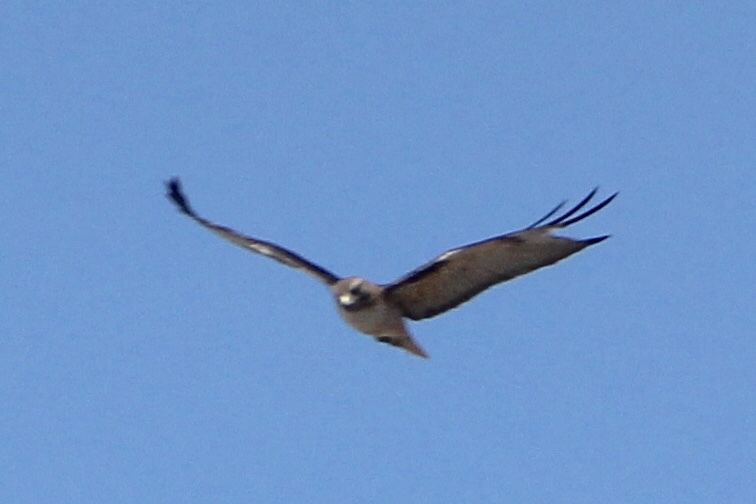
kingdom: Animalia
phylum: Chordata
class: Aves
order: Accipitriformes
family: Accipitridae
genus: Buteo
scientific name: Buteo jamaicensis
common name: Red-tailed hawk
